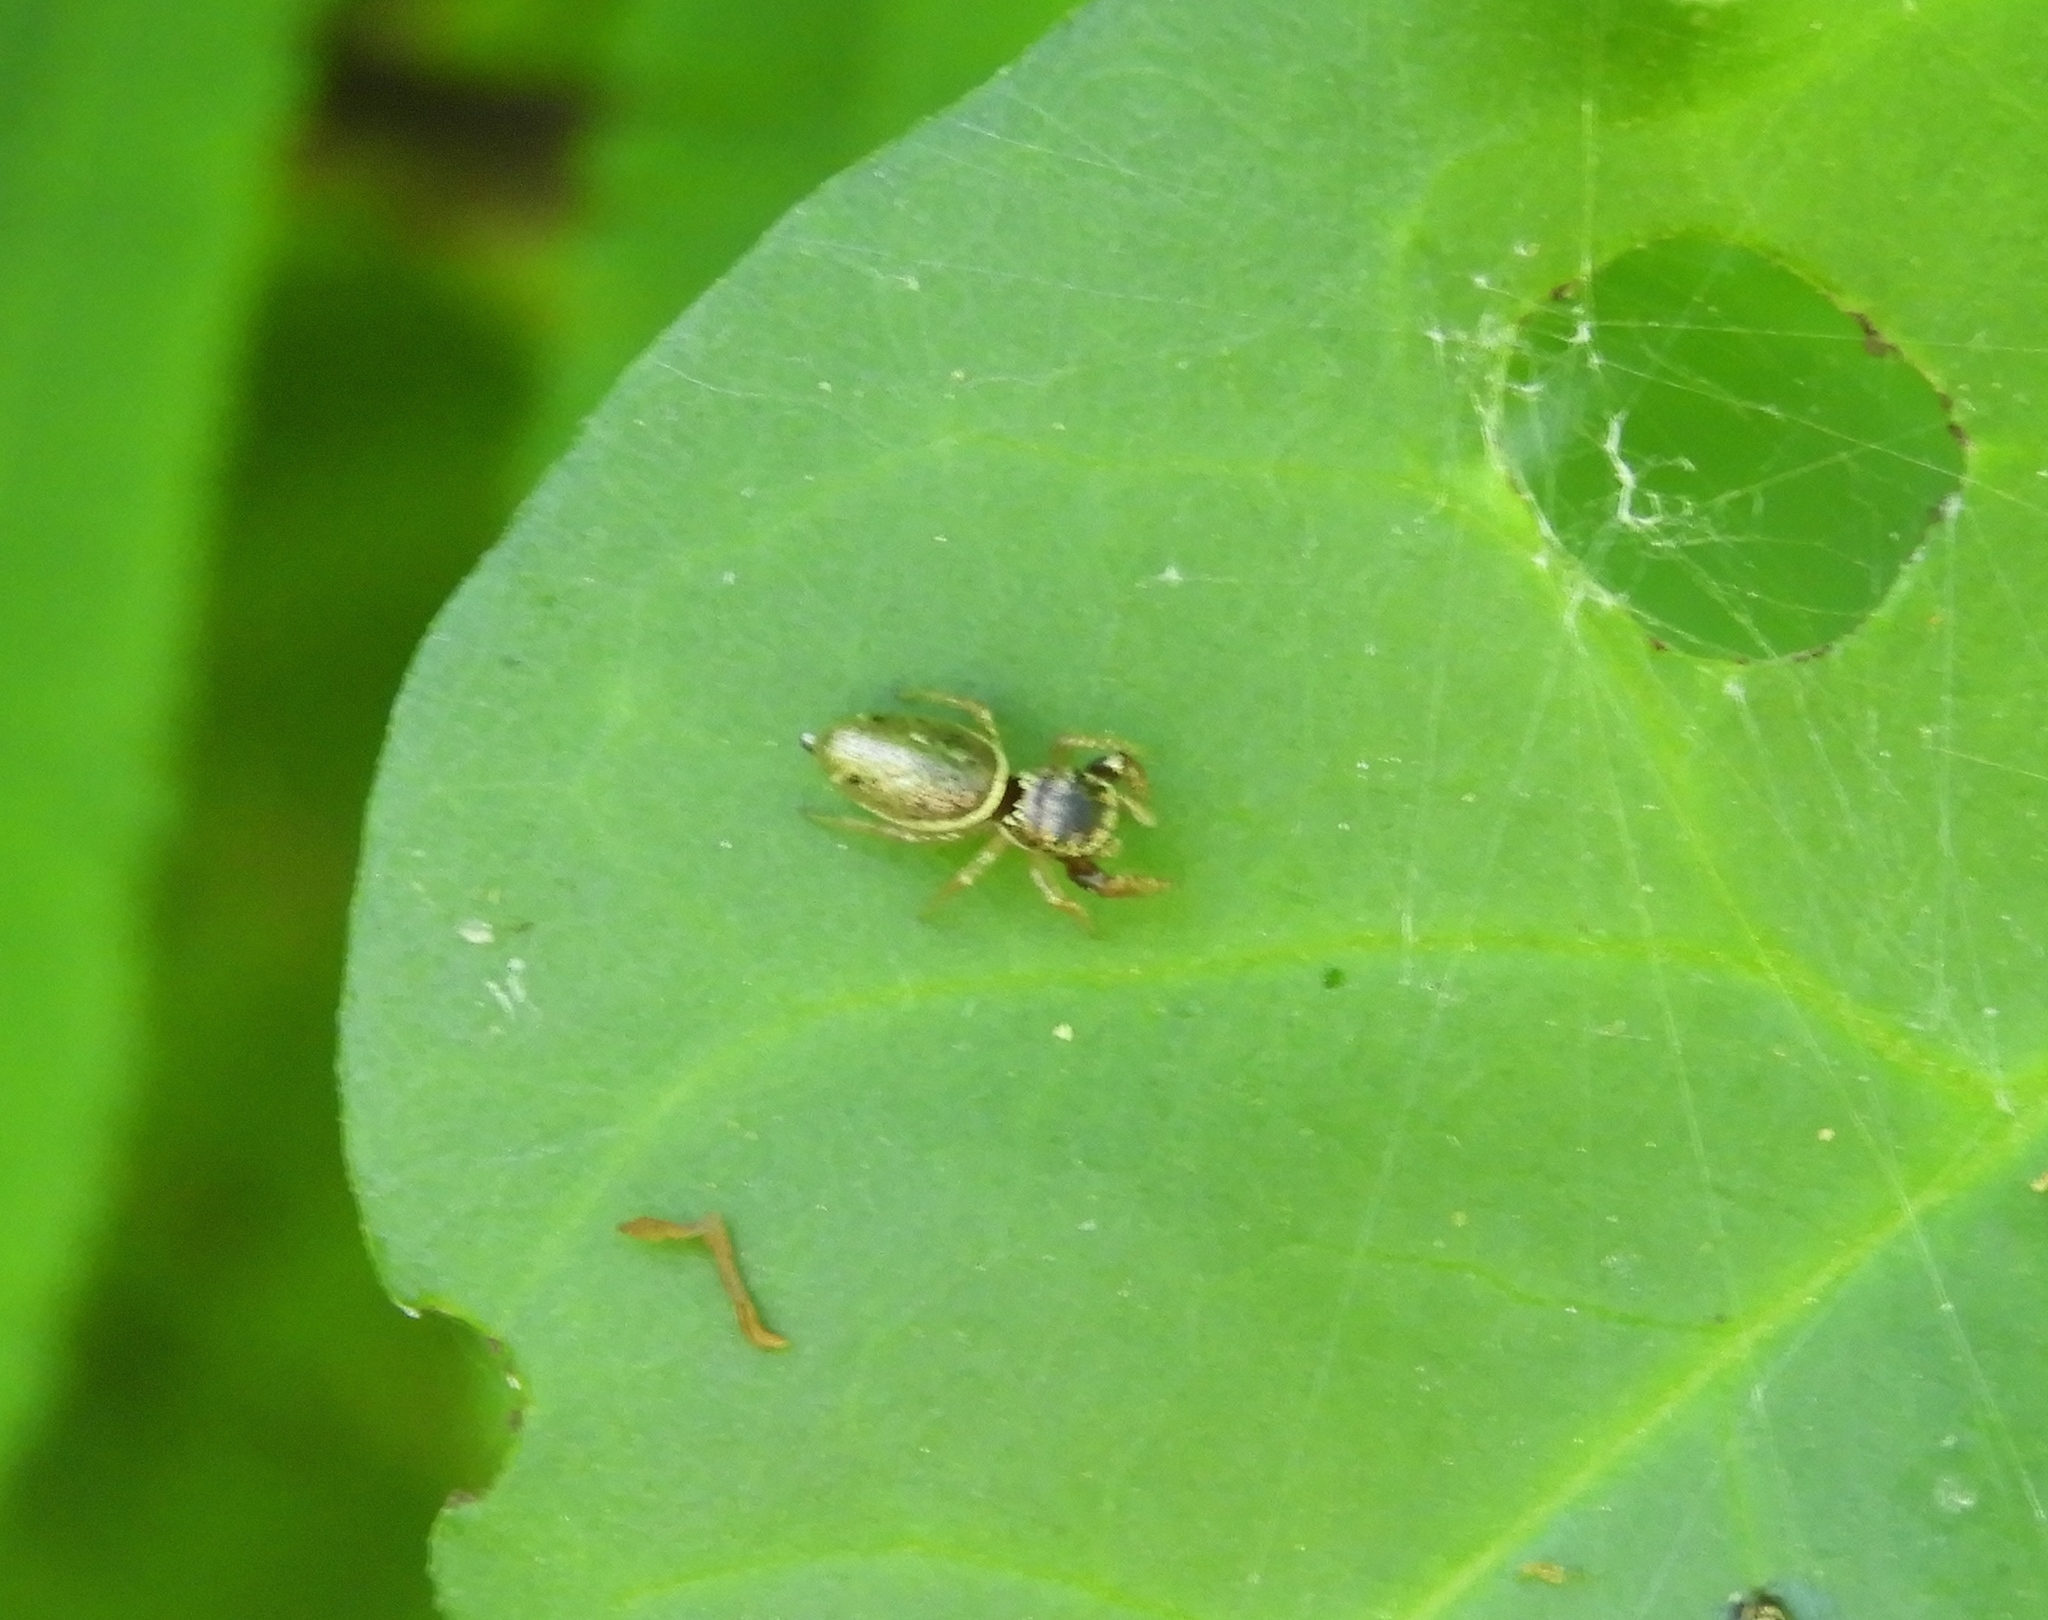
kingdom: Animalia
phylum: Arthropoda
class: Arachnida
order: Araneae
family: Salticidae
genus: Sassacus
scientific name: Sassacus
